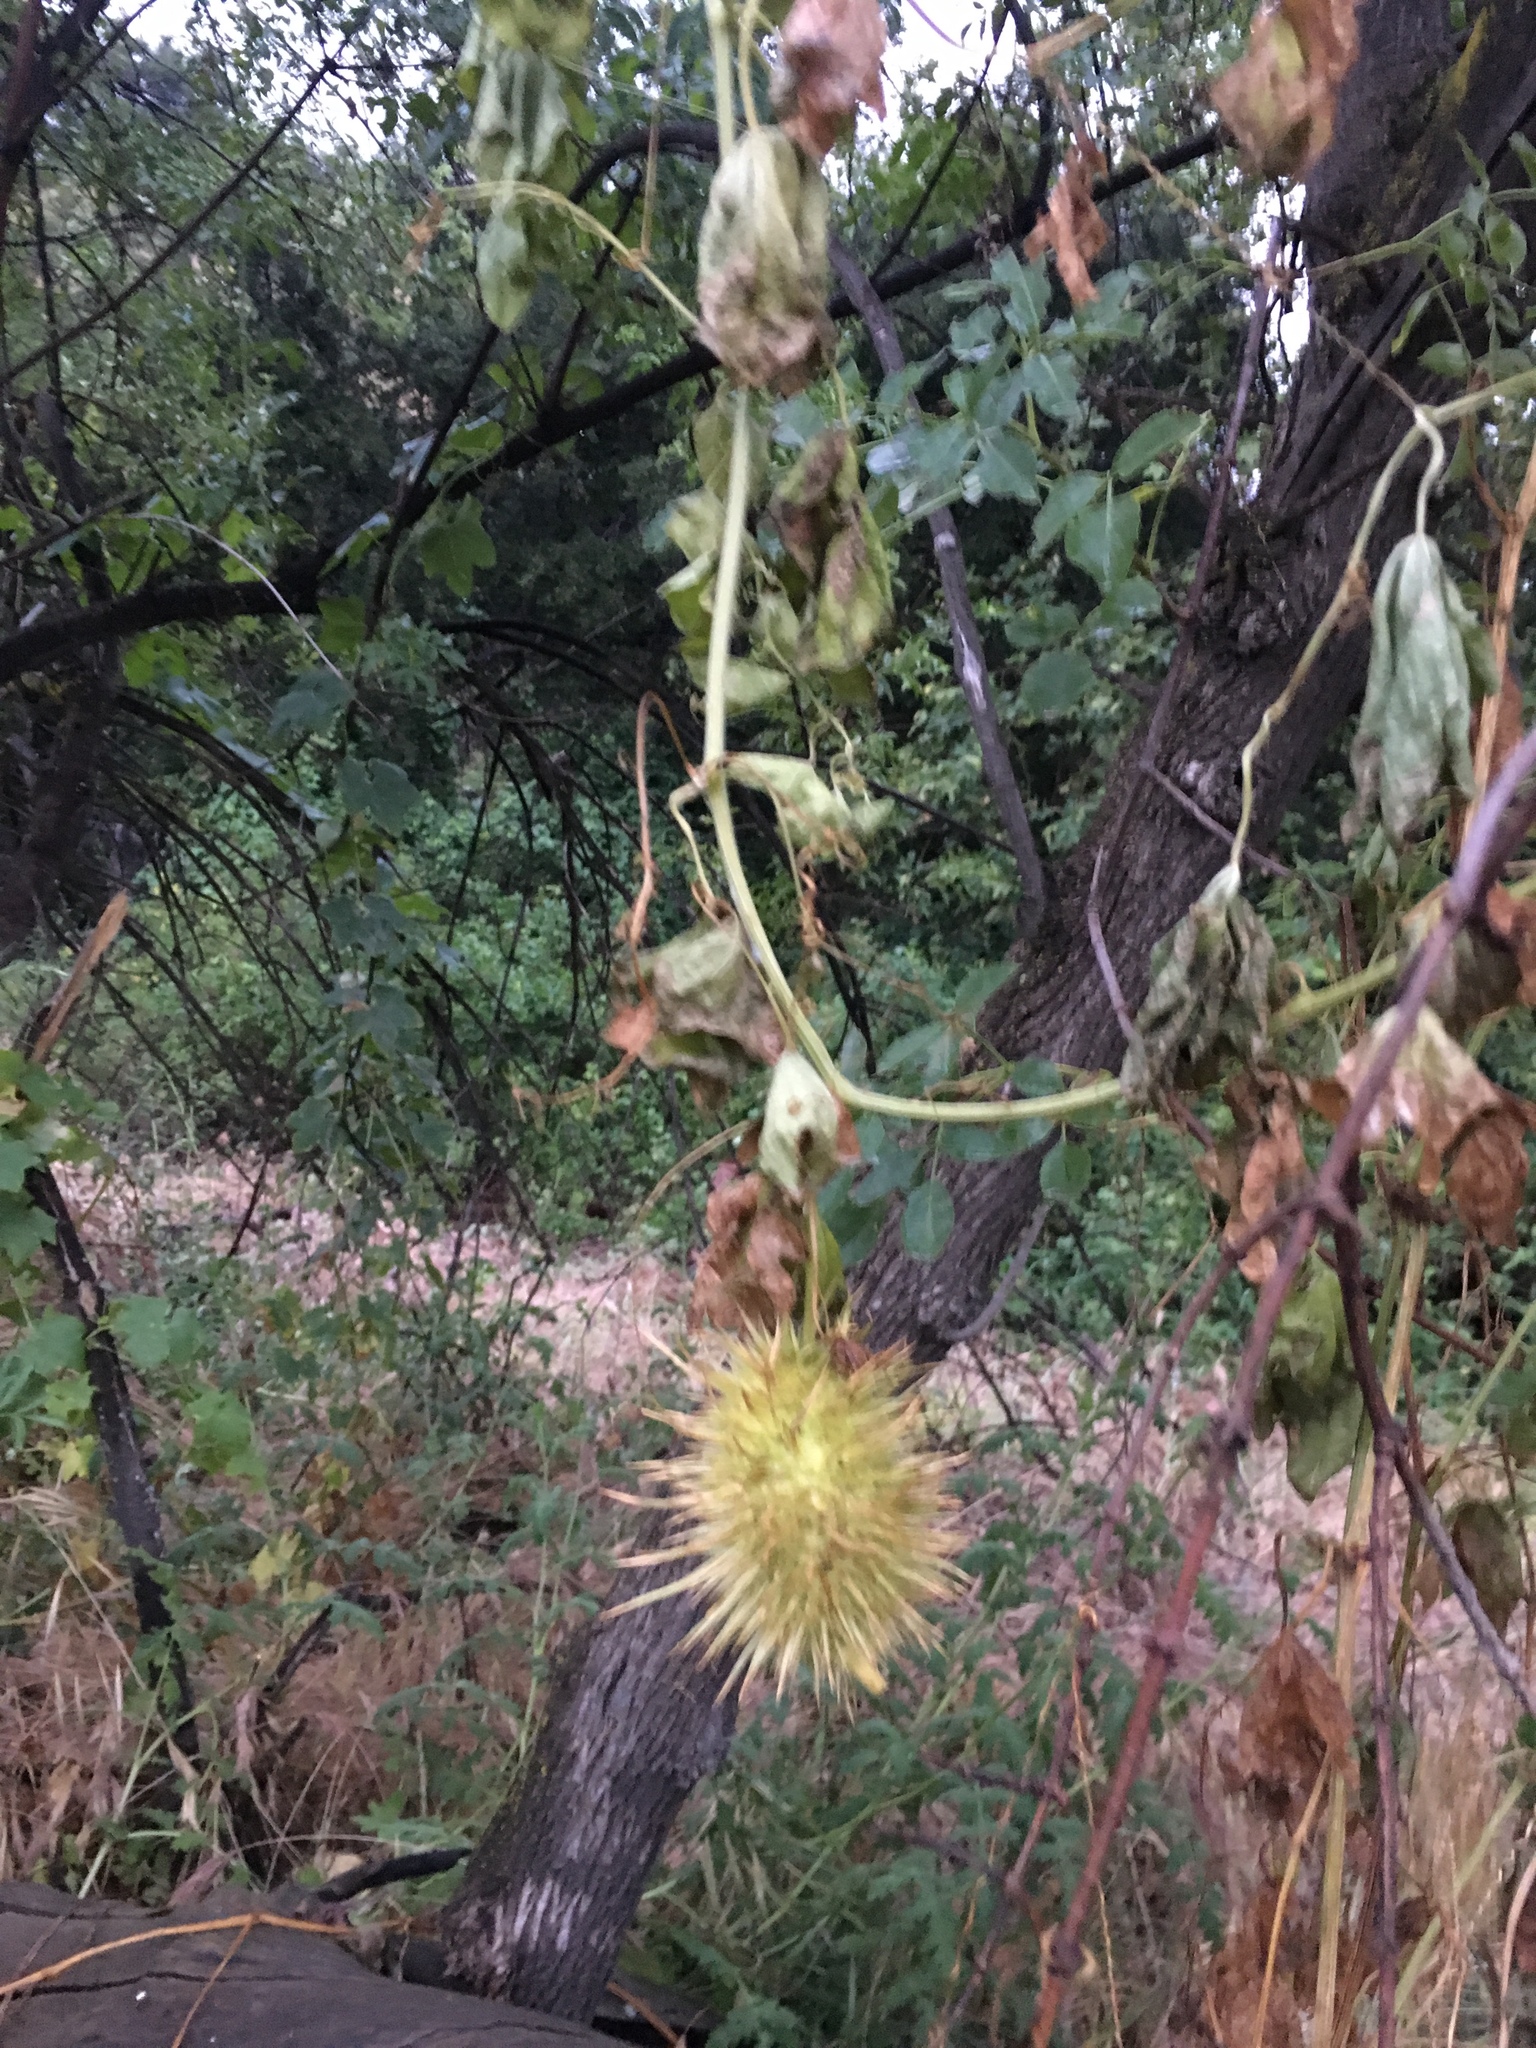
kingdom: Plantae
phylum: Tracheophyta
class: Magnoliopsida
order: Cucurbitales
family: Cucurbitaceae
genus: Marah
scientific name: Marah macrocarpa
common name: Cucamonga manroot
